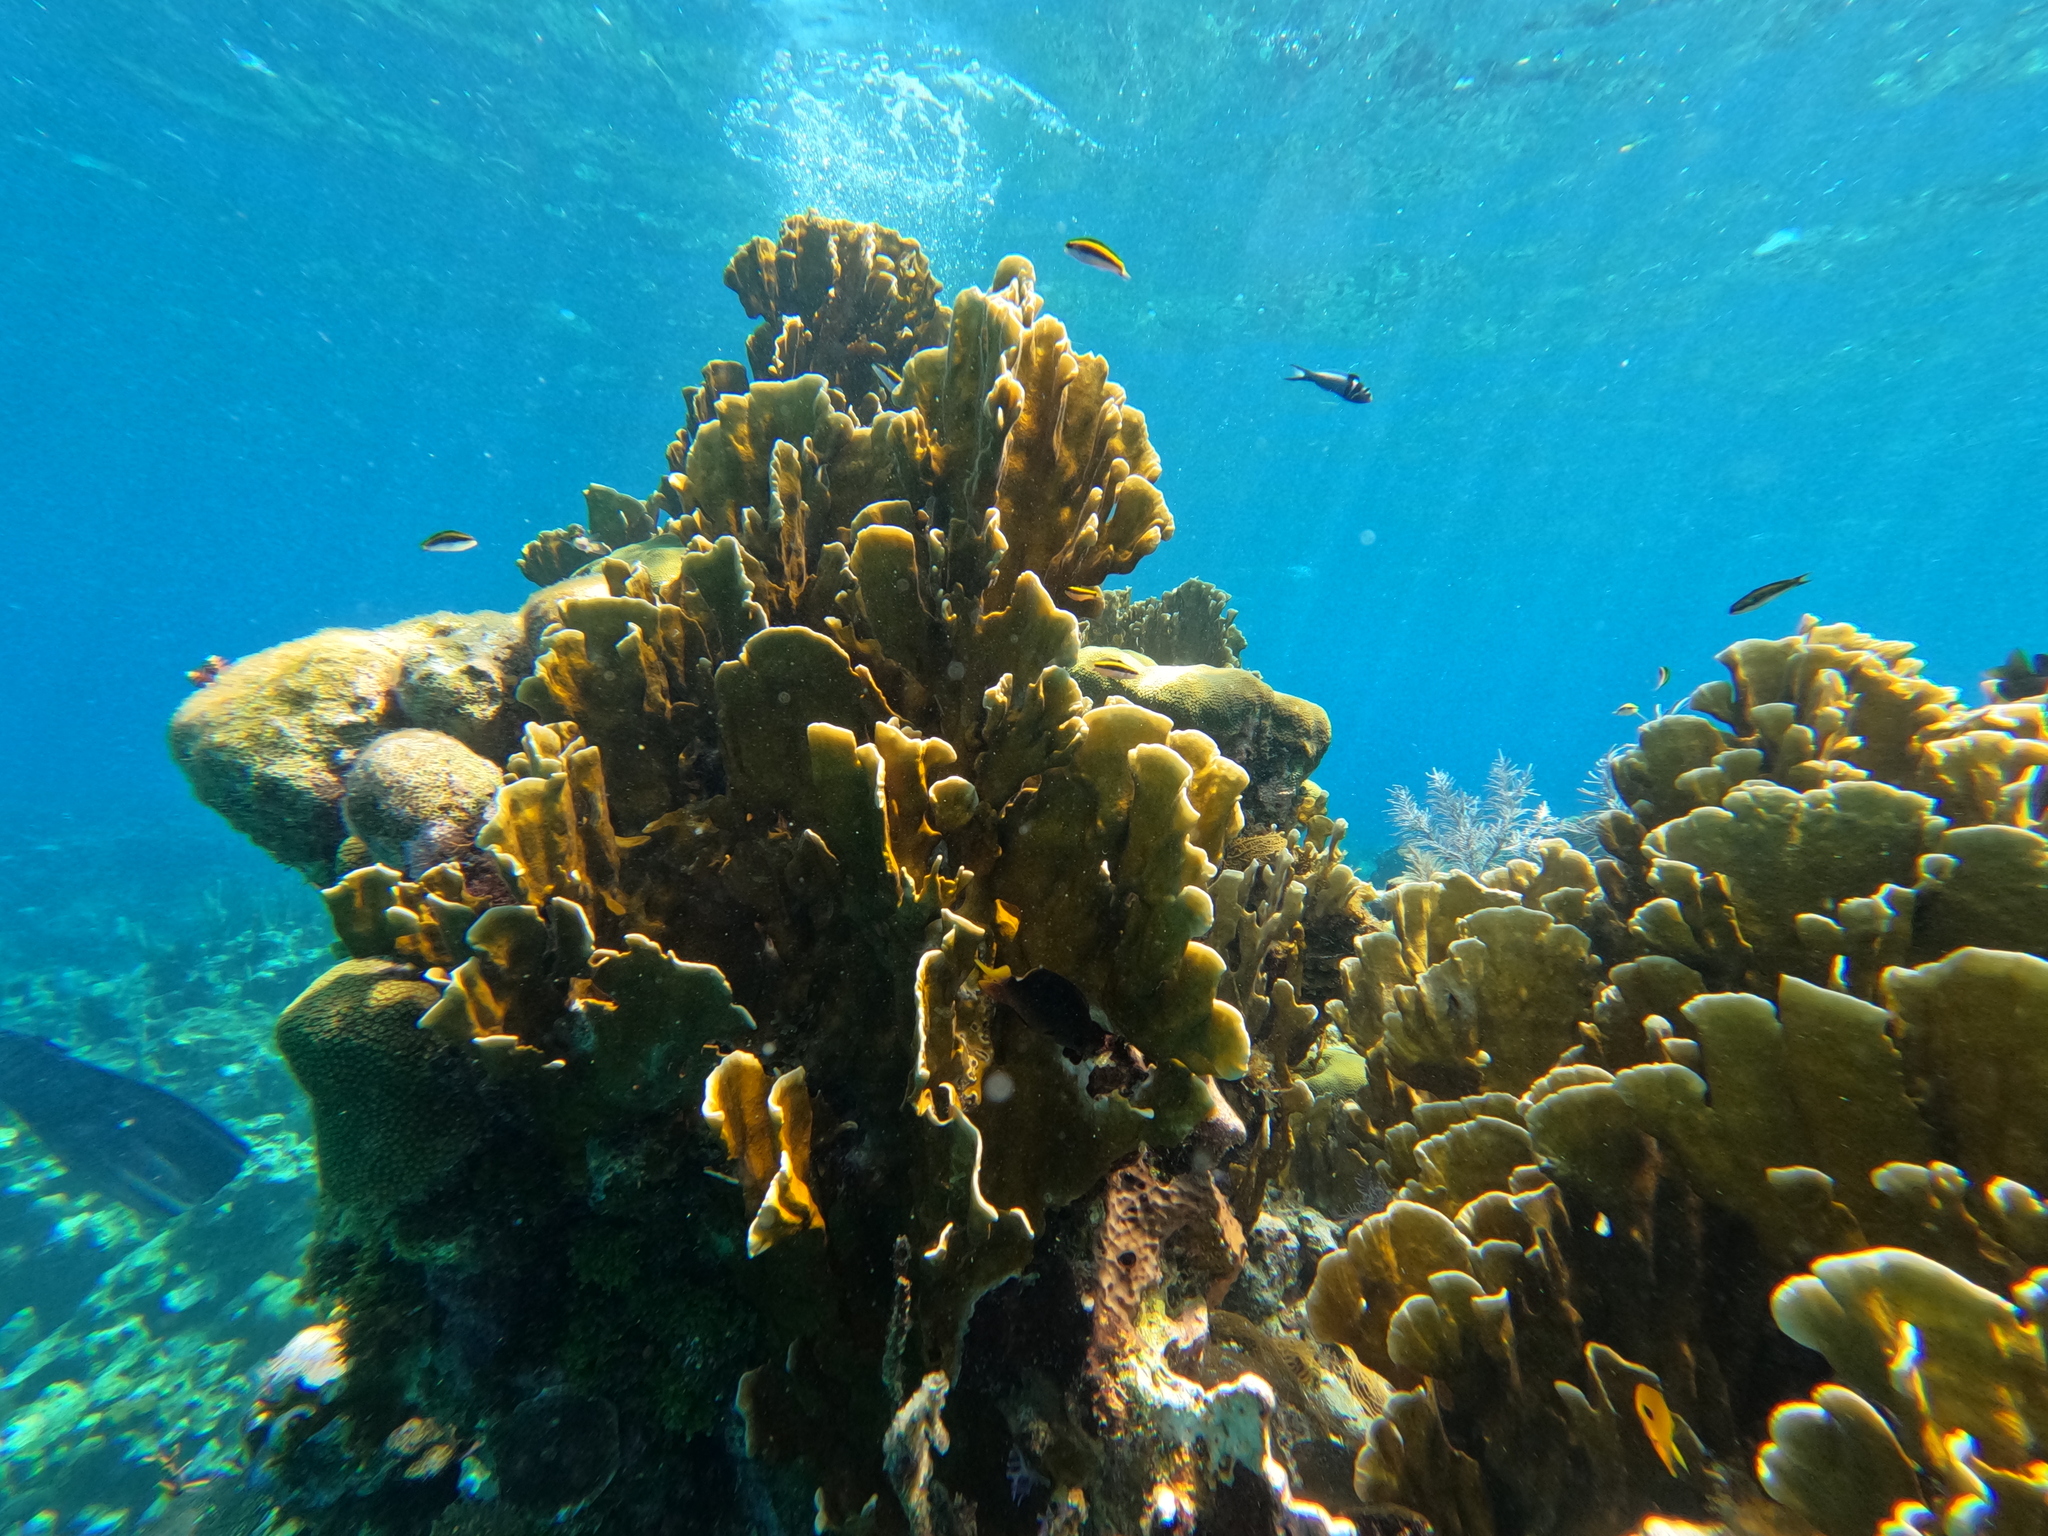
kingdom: Animalia
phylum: Cnidaria
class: Hydrozoa
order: Anthoathecata
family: Milleporidae
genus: Millepora
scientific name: Millepora complanata
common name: Bladed fire coral
